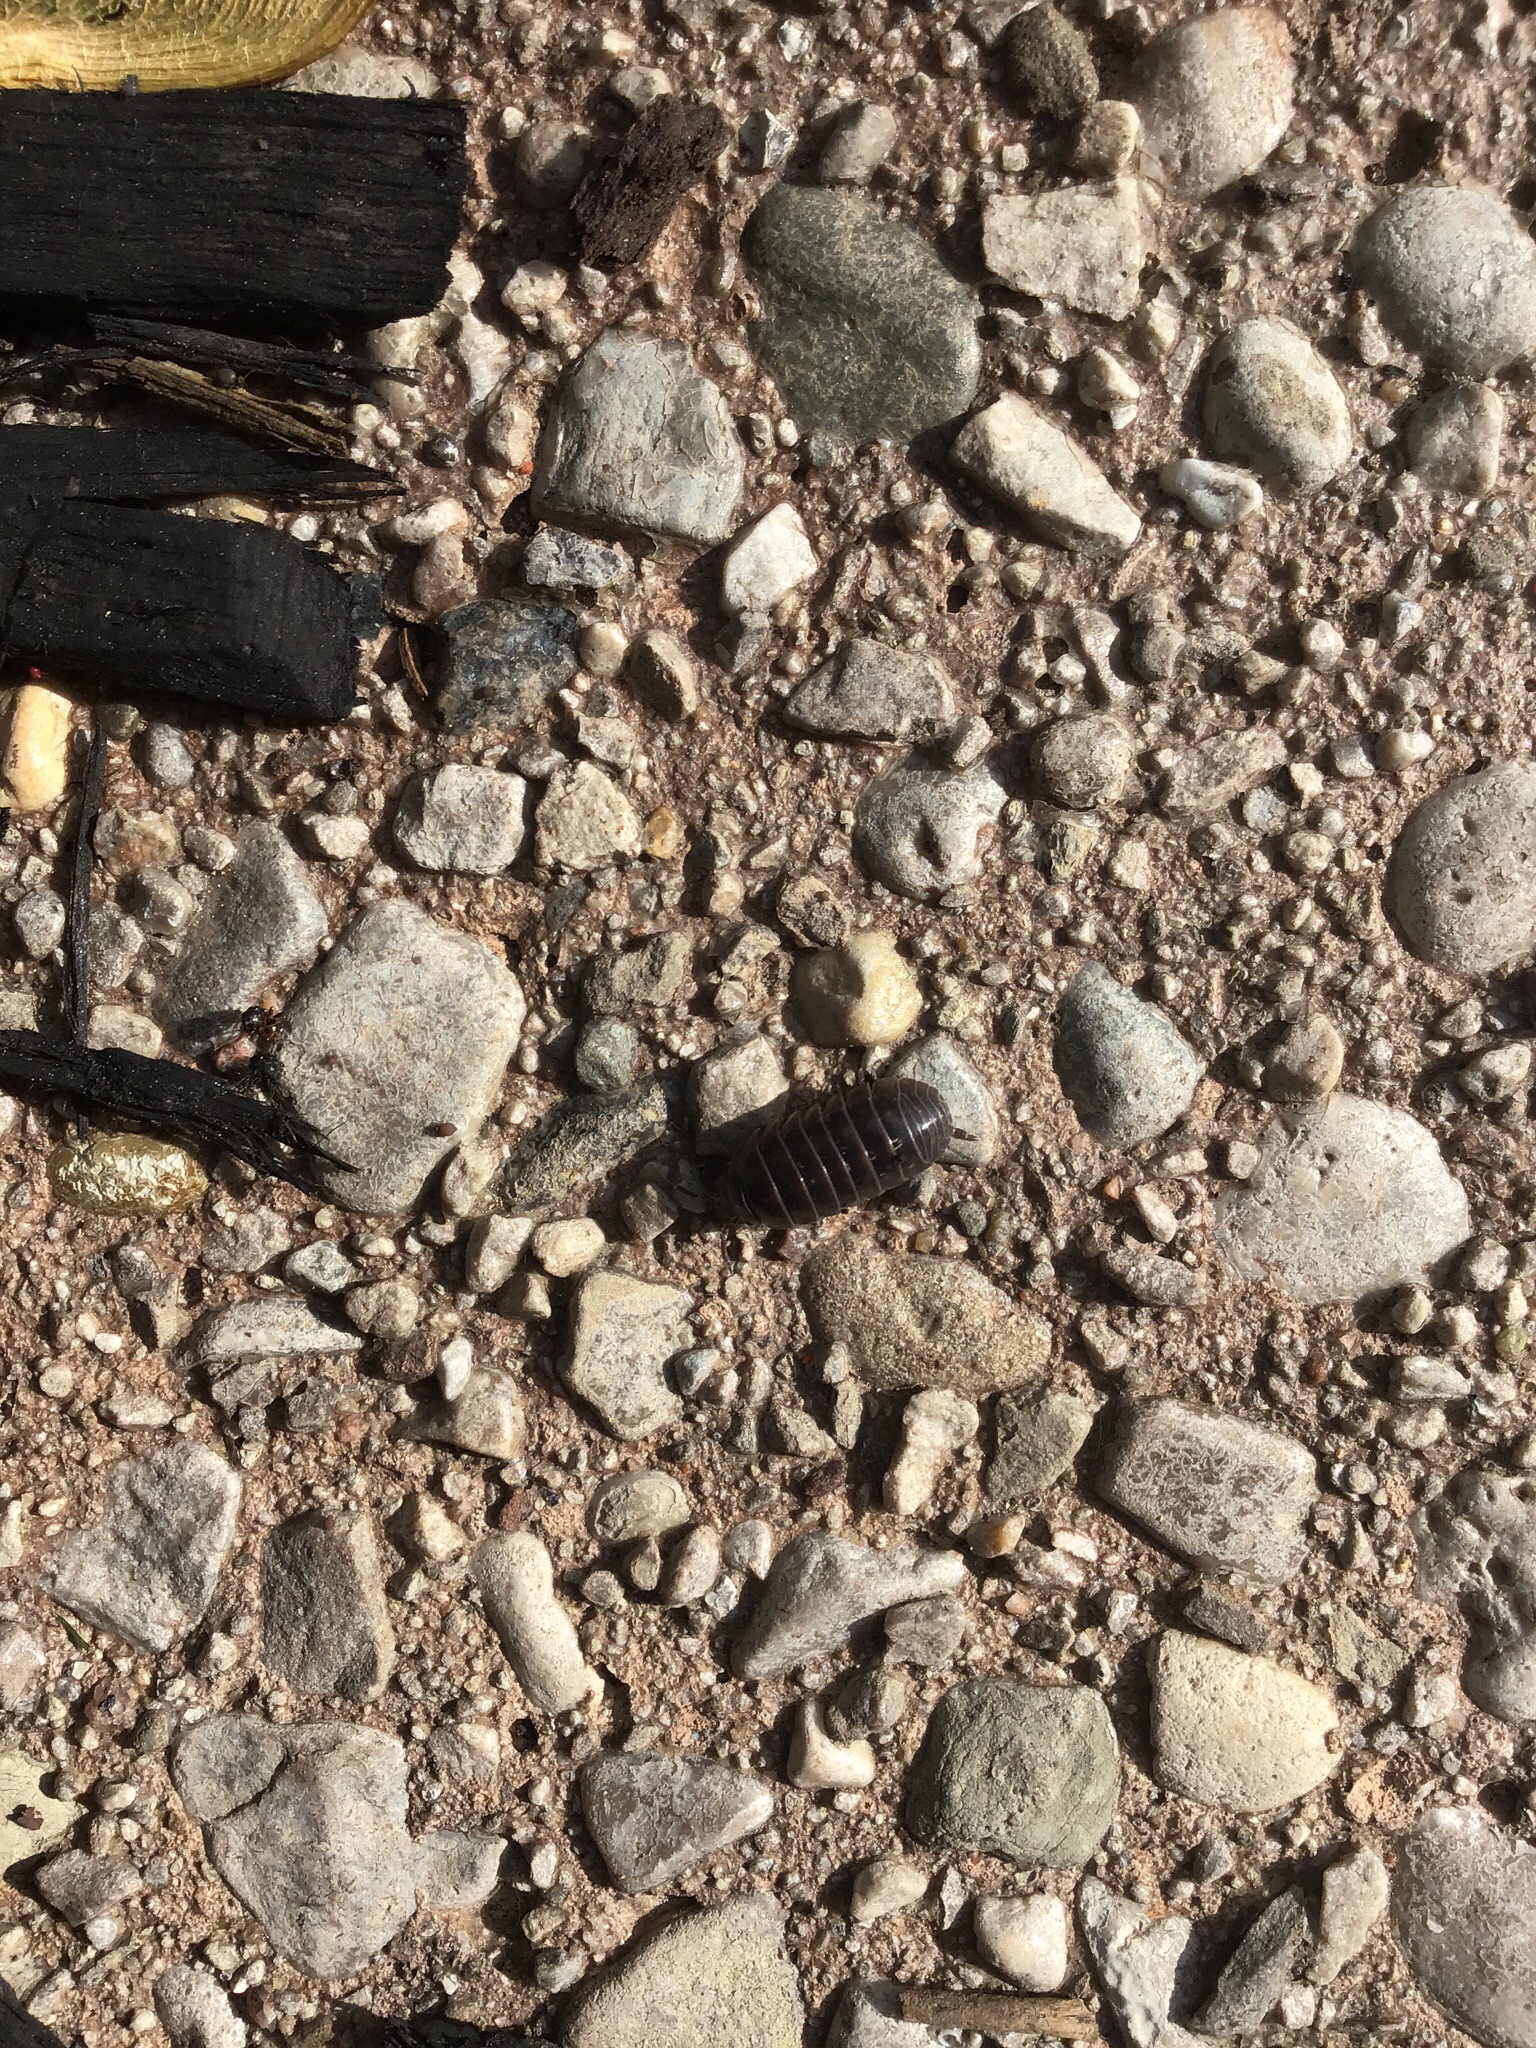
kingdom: Animalia
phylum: Arthropoda
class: Malacostraca
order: Isopoda
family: Armadillidiidae
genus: Armadillidium
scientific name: Armadillidium vulgare
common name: Common pill woodlouse
